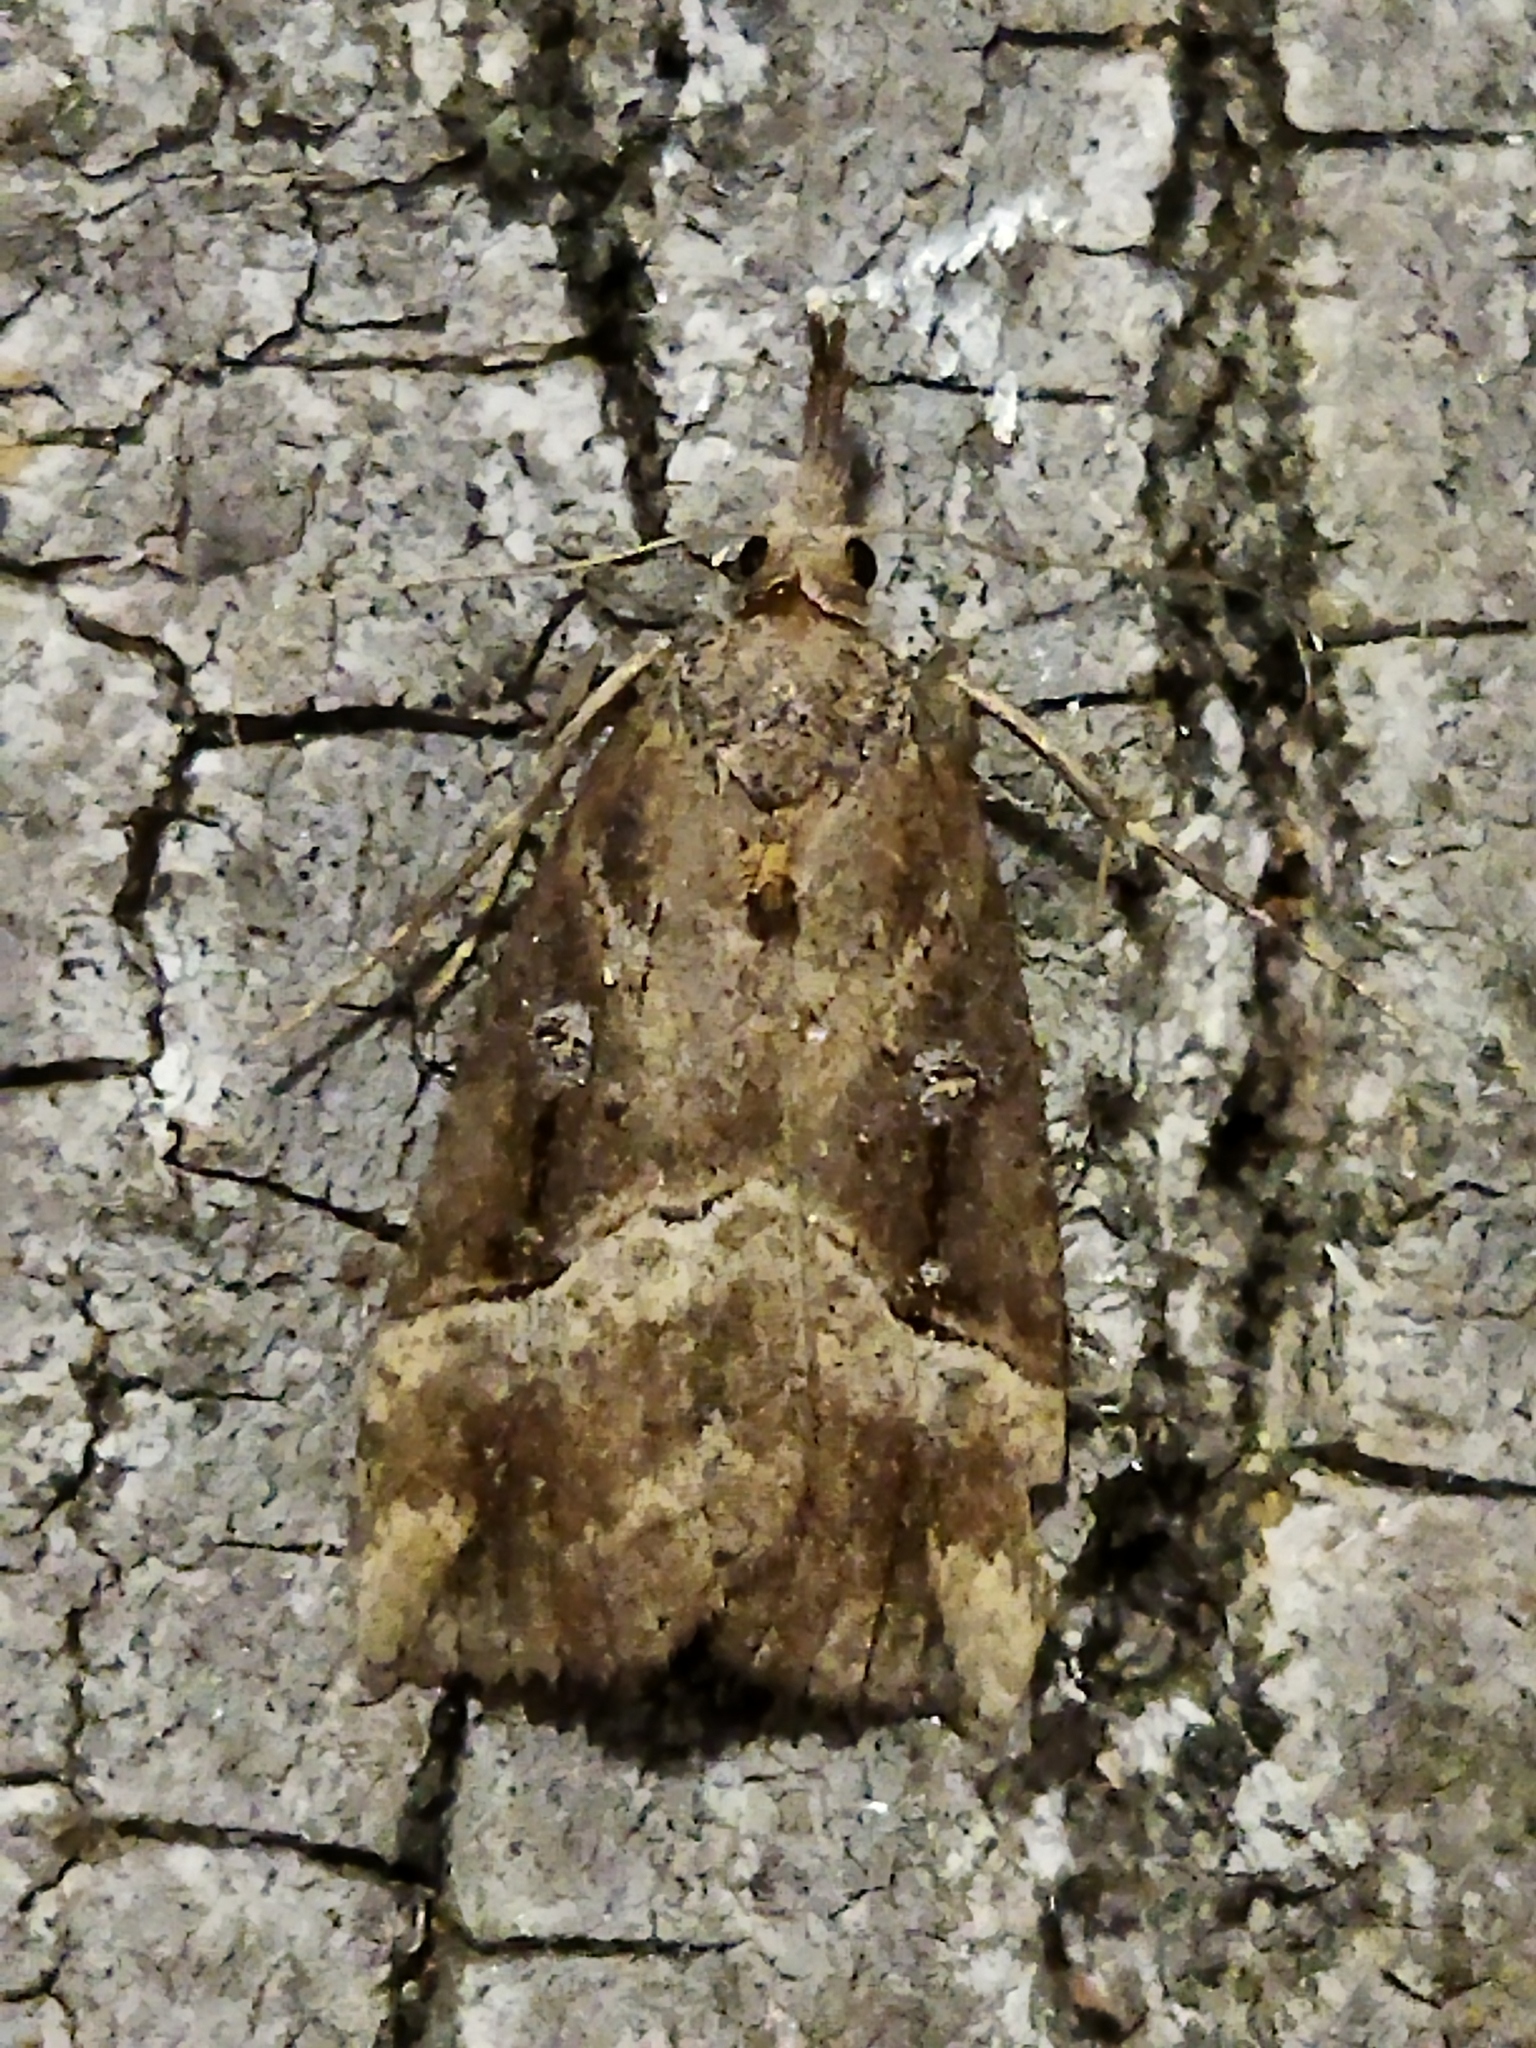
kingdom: Animalia
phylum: Arthropoda
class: Insecta
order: Lepidoptera
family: Erebidae
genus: Hypena
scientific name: Hypena rostralis
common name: Buttoned snout
